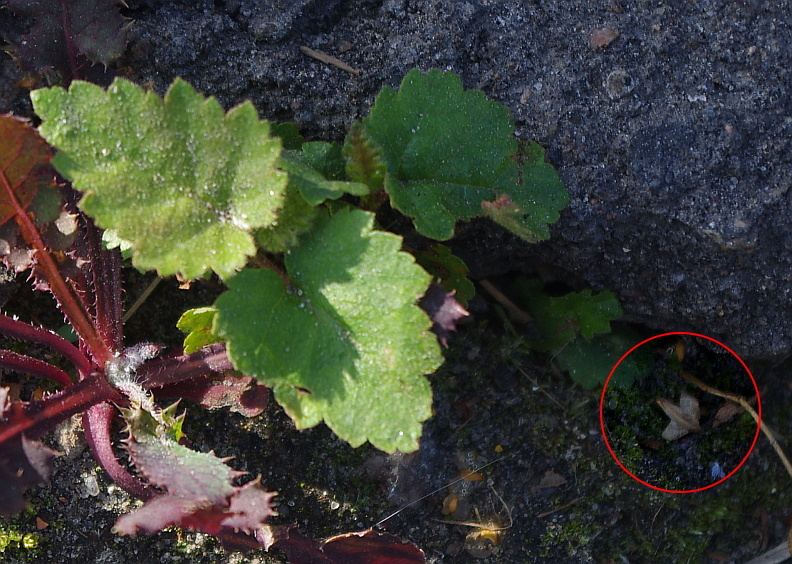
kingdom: Plantae
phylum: Tracheophyta
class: Magnoliopsida
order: Fagales
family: Betulaceae
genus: Betula
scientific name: Betula pendula
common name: Silver birch
